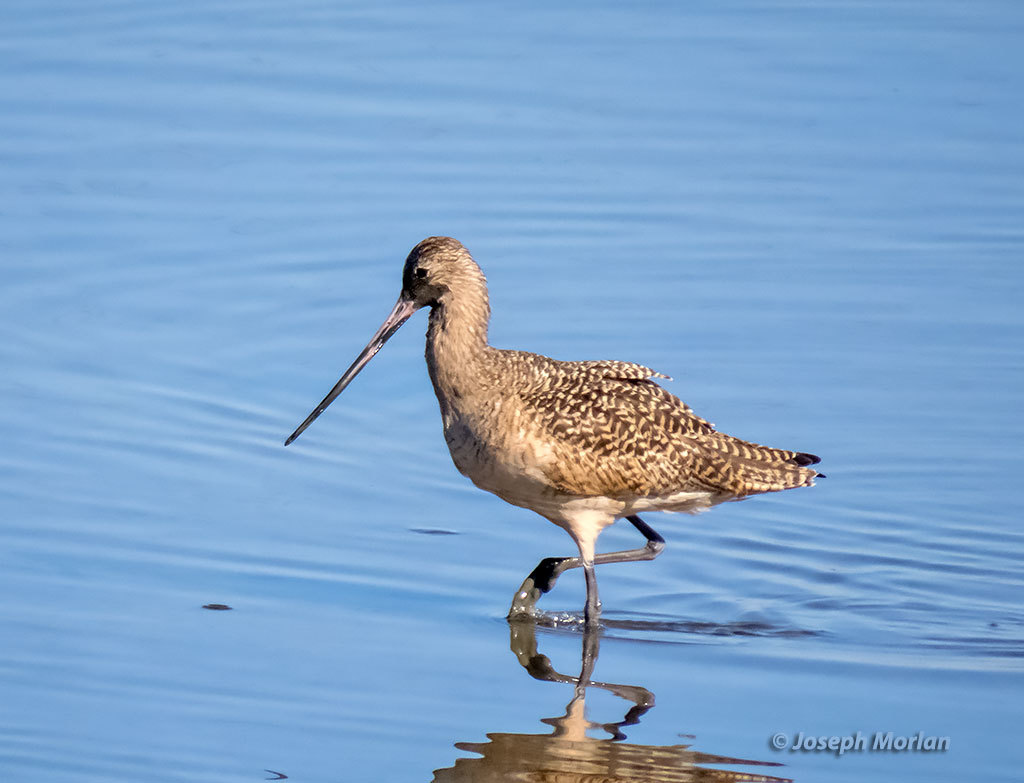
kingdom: Animalia
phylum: Chordata
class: Aves
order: Charadriiformes
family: Scolopacidae
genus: Limosa
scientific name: Limosa fedoa
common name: Marbled godwit
